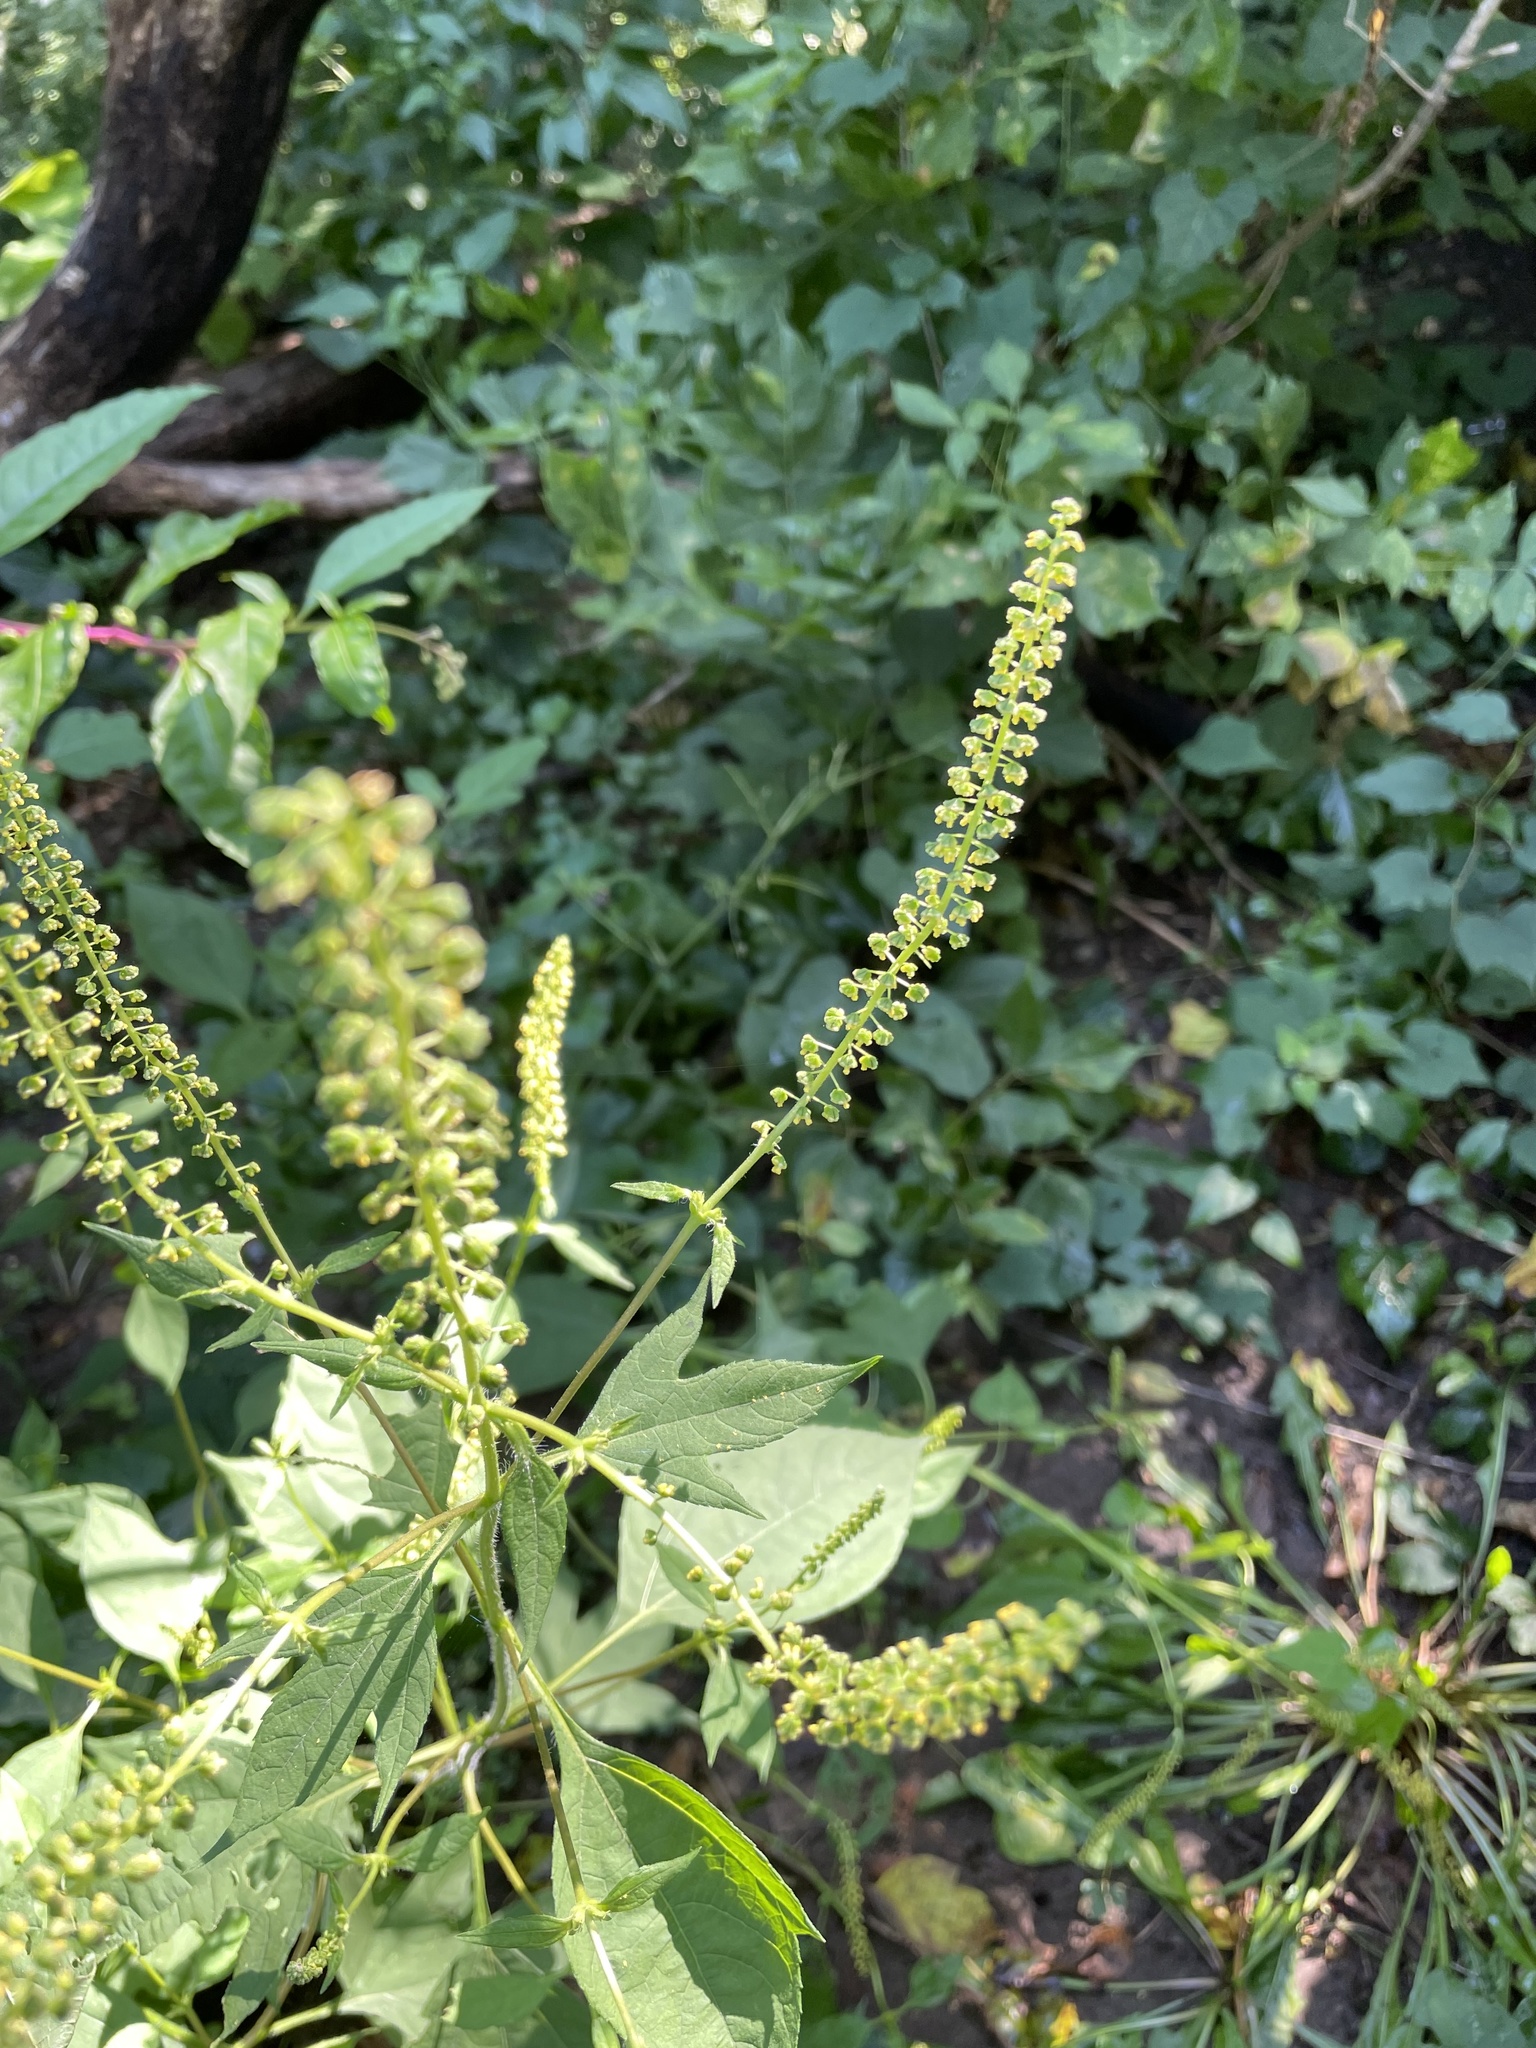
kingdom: Plantae
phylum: Tracheophyta
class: Magnoliopsida
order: Asterales
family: Asteraceae
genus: Ambrosia
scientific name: Ambrosia trifida
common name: Giant ragweed
